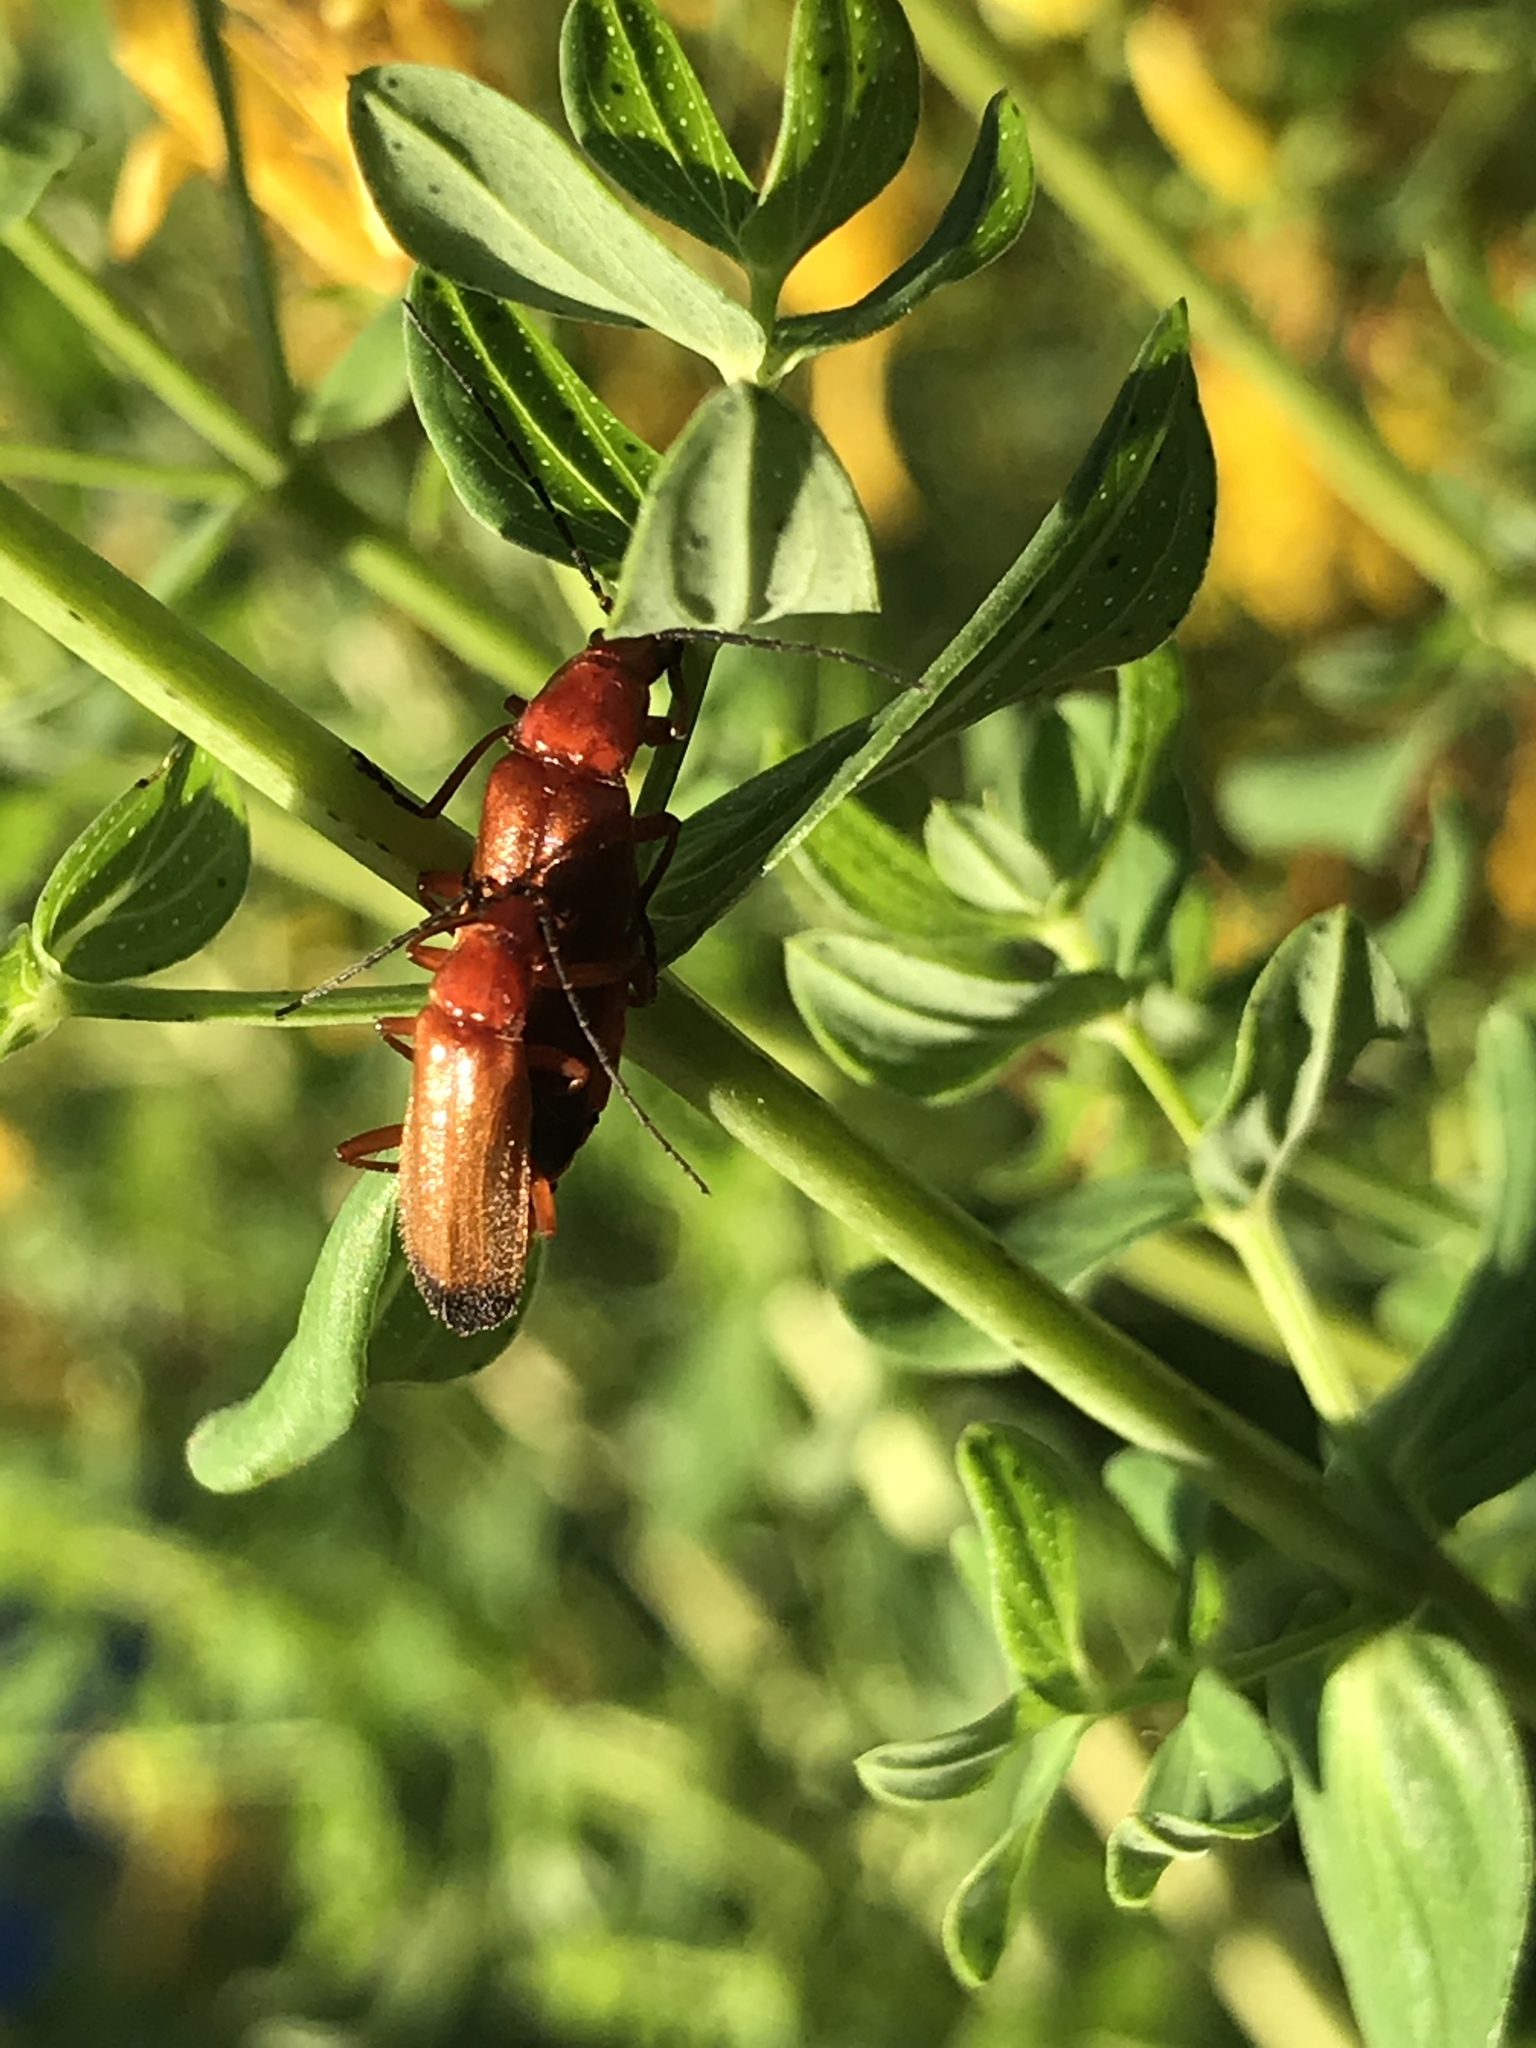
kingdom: Animalia
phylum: Arthropoda
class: Insecta
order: Coleoptera
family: Cantharidae
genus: Rhagonycha
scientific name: Rhagonycha fulva
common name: Common red soldier beetle
